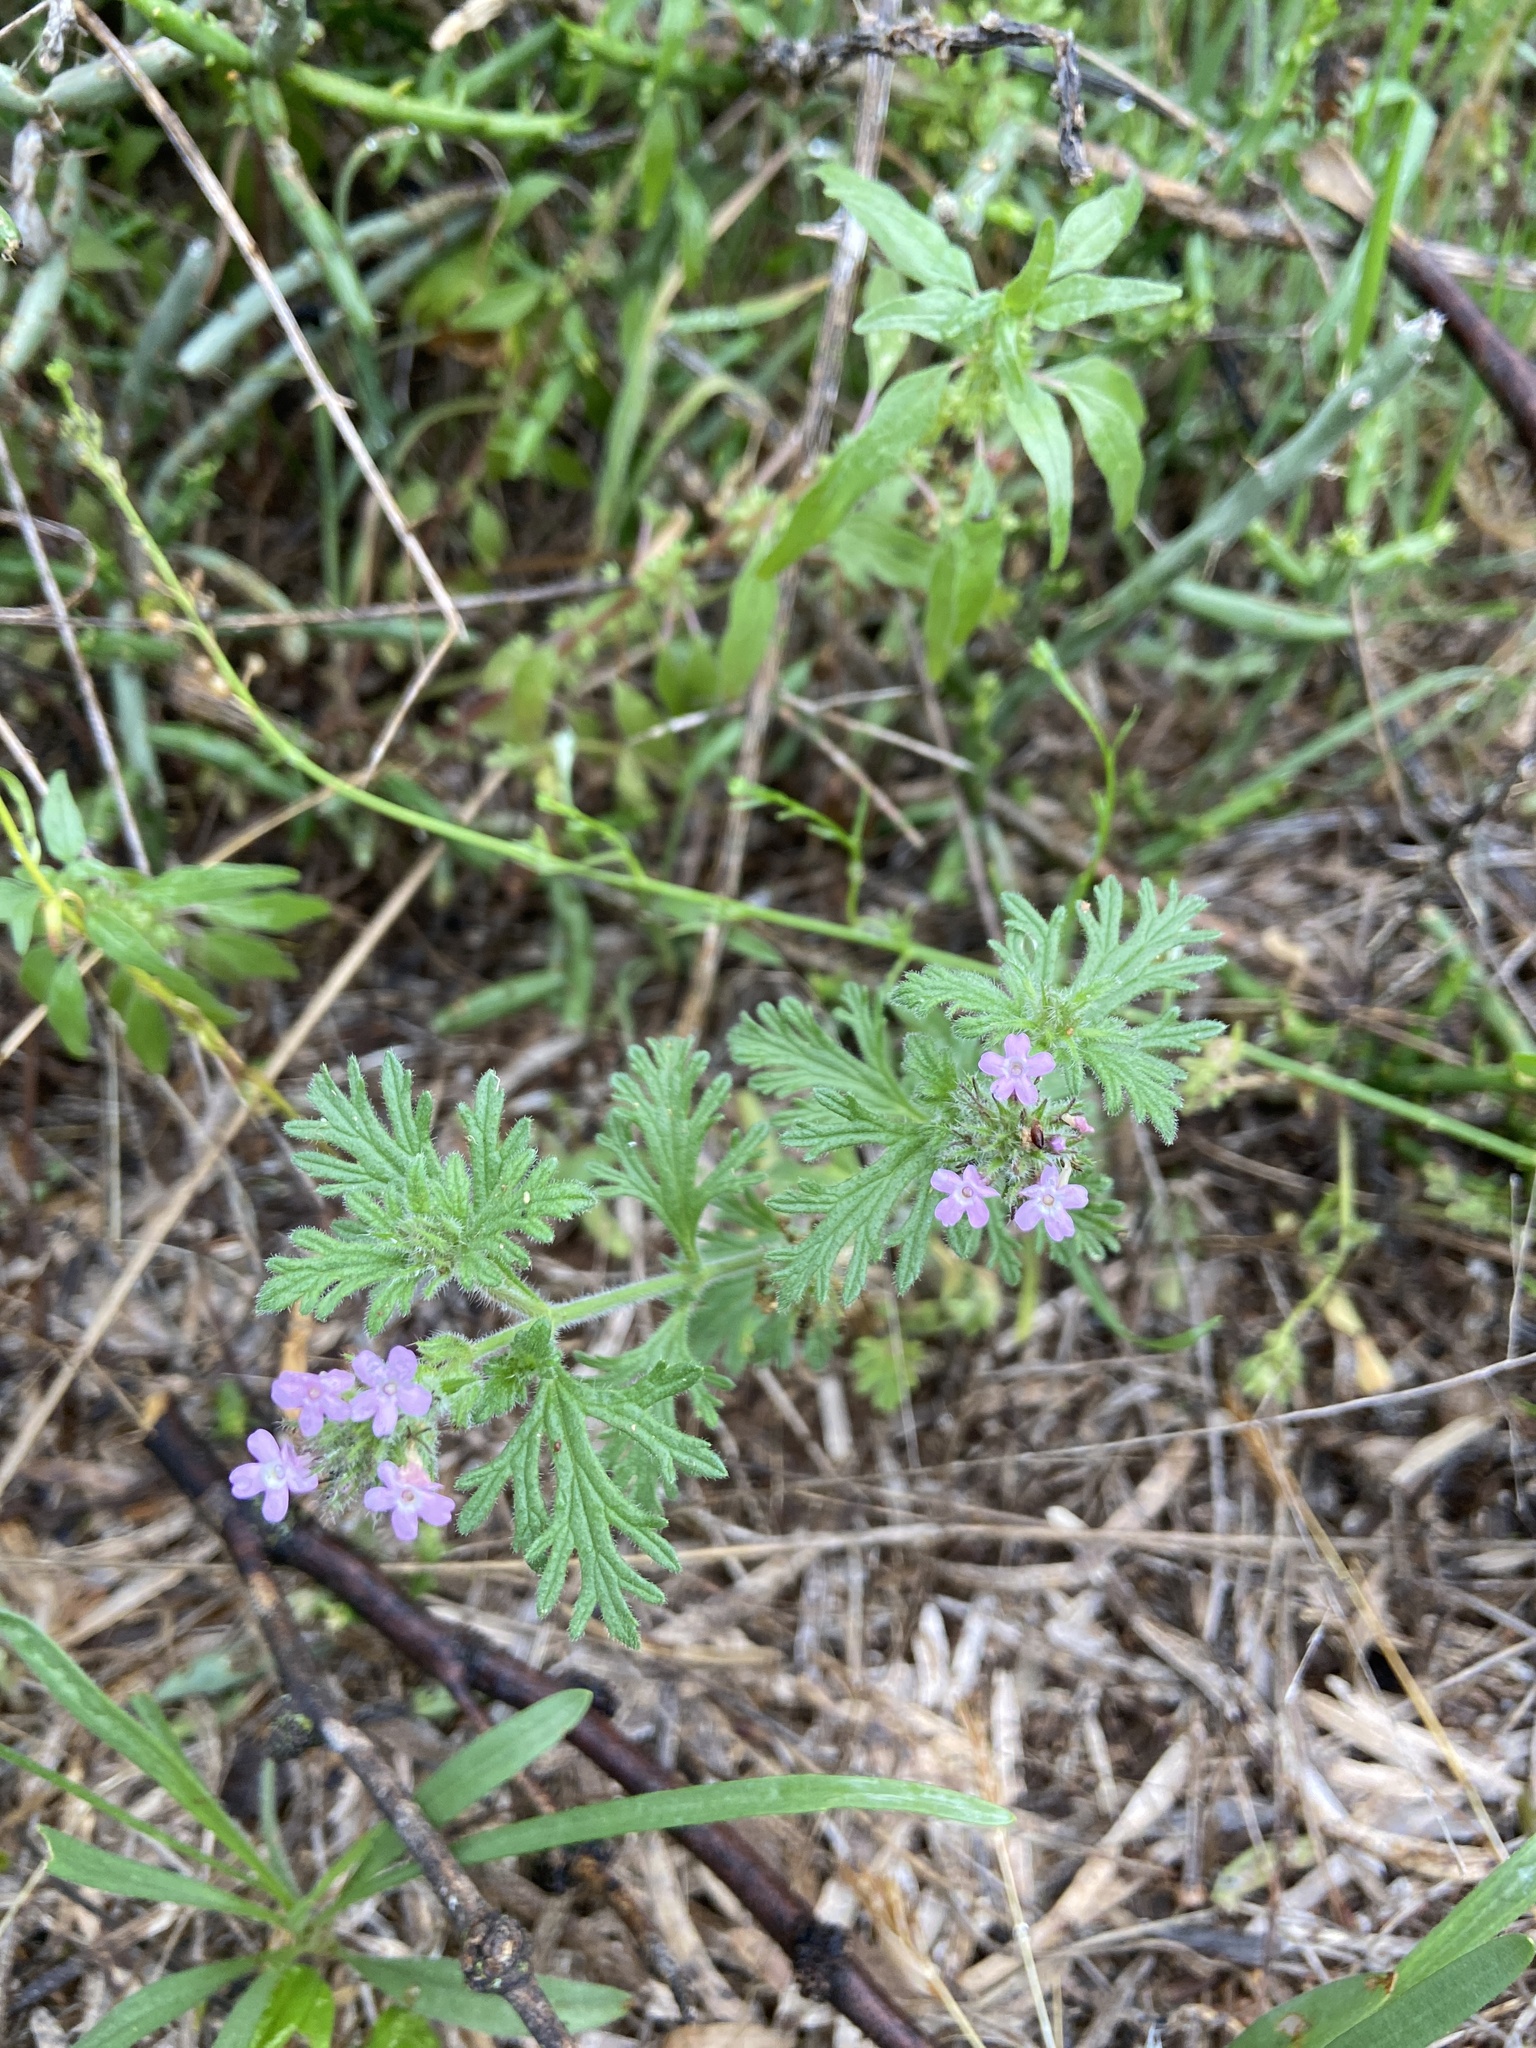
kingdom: Plantae
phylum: Tracheophyta
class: Magnoliopsida
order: Lamiales
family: Verbenaceae
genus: Verbena
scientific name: Verbena pumila
